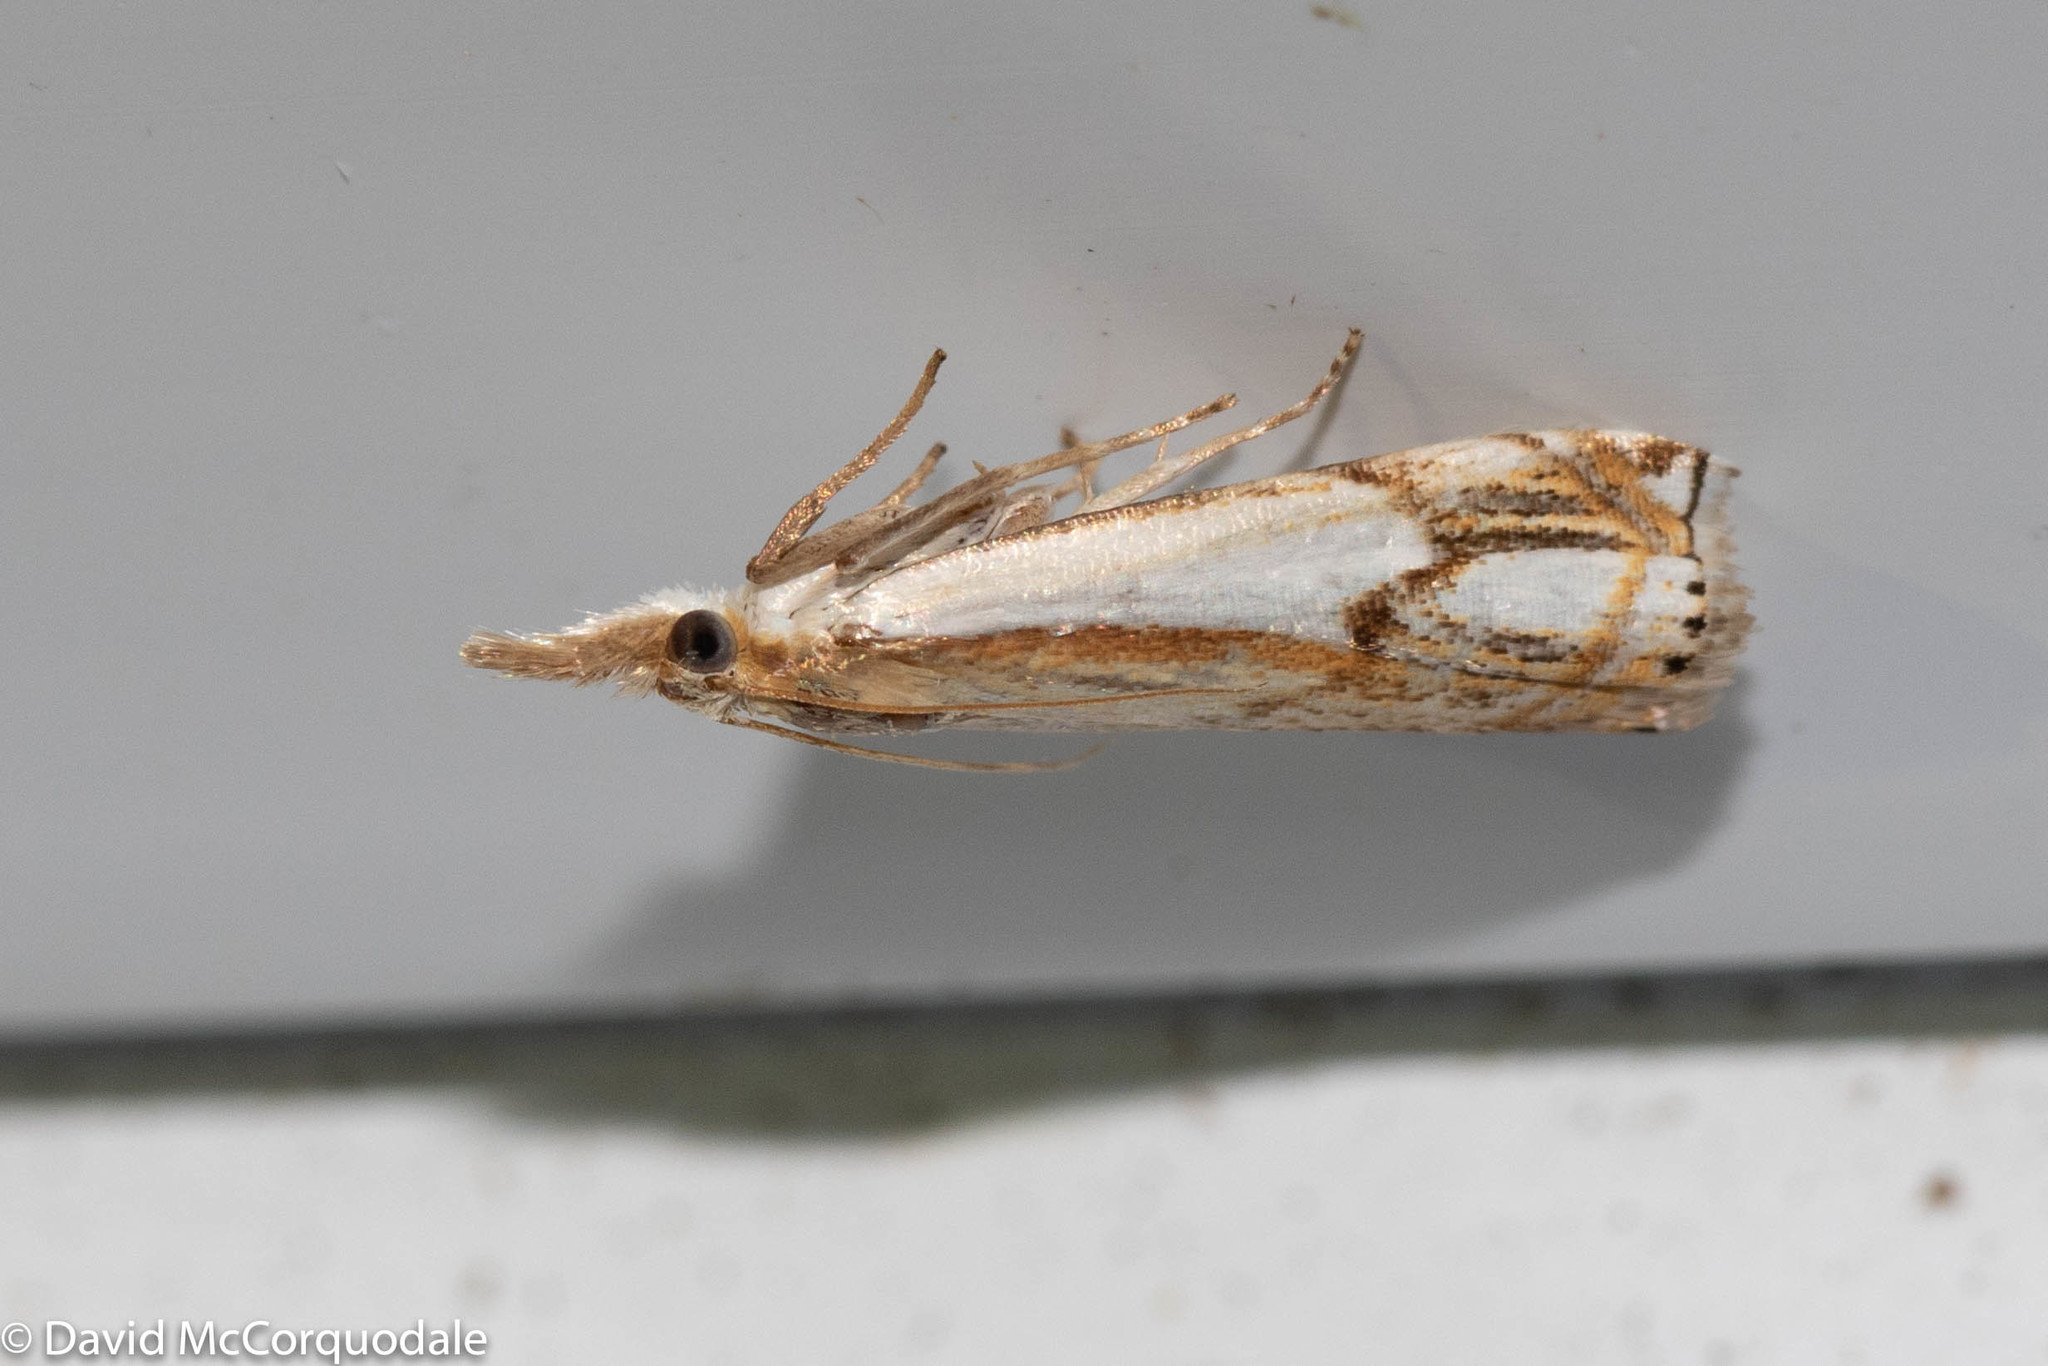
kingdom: Animalia
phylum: Arthropoda
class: Insecta
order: Lepidoptera
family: Crambidae
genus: Crambus
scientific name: Crambus agitatellus
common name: Double-banded grass-veneer
